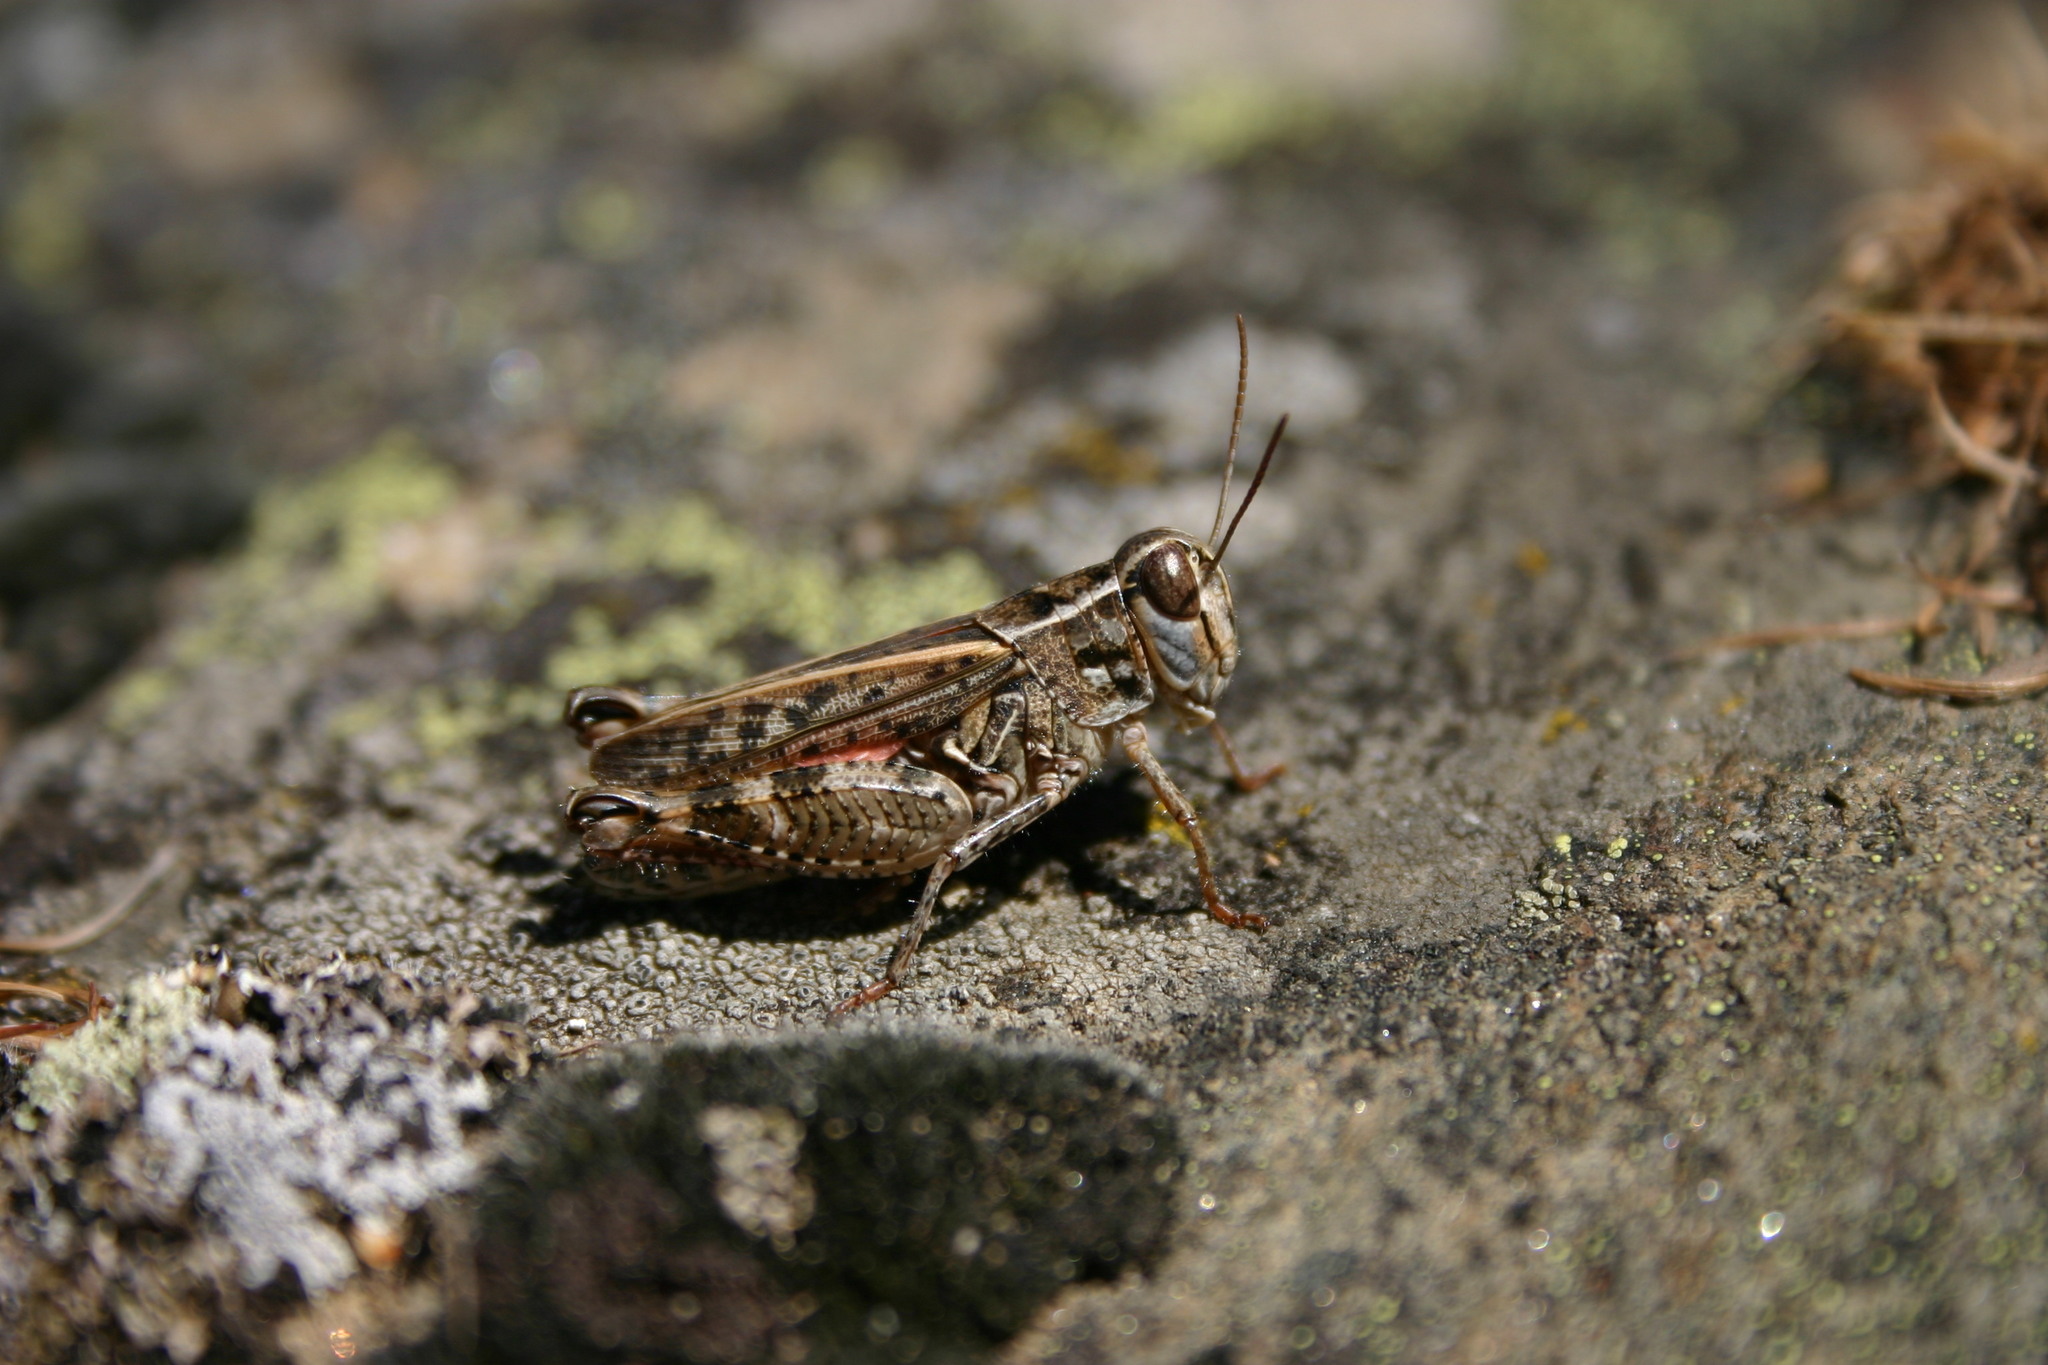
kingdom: Animalia
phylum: Arthropoda
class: Insecta
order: Orthoptera
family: Acrididae
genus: Calliptamus
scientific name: Calliptamus italicus
